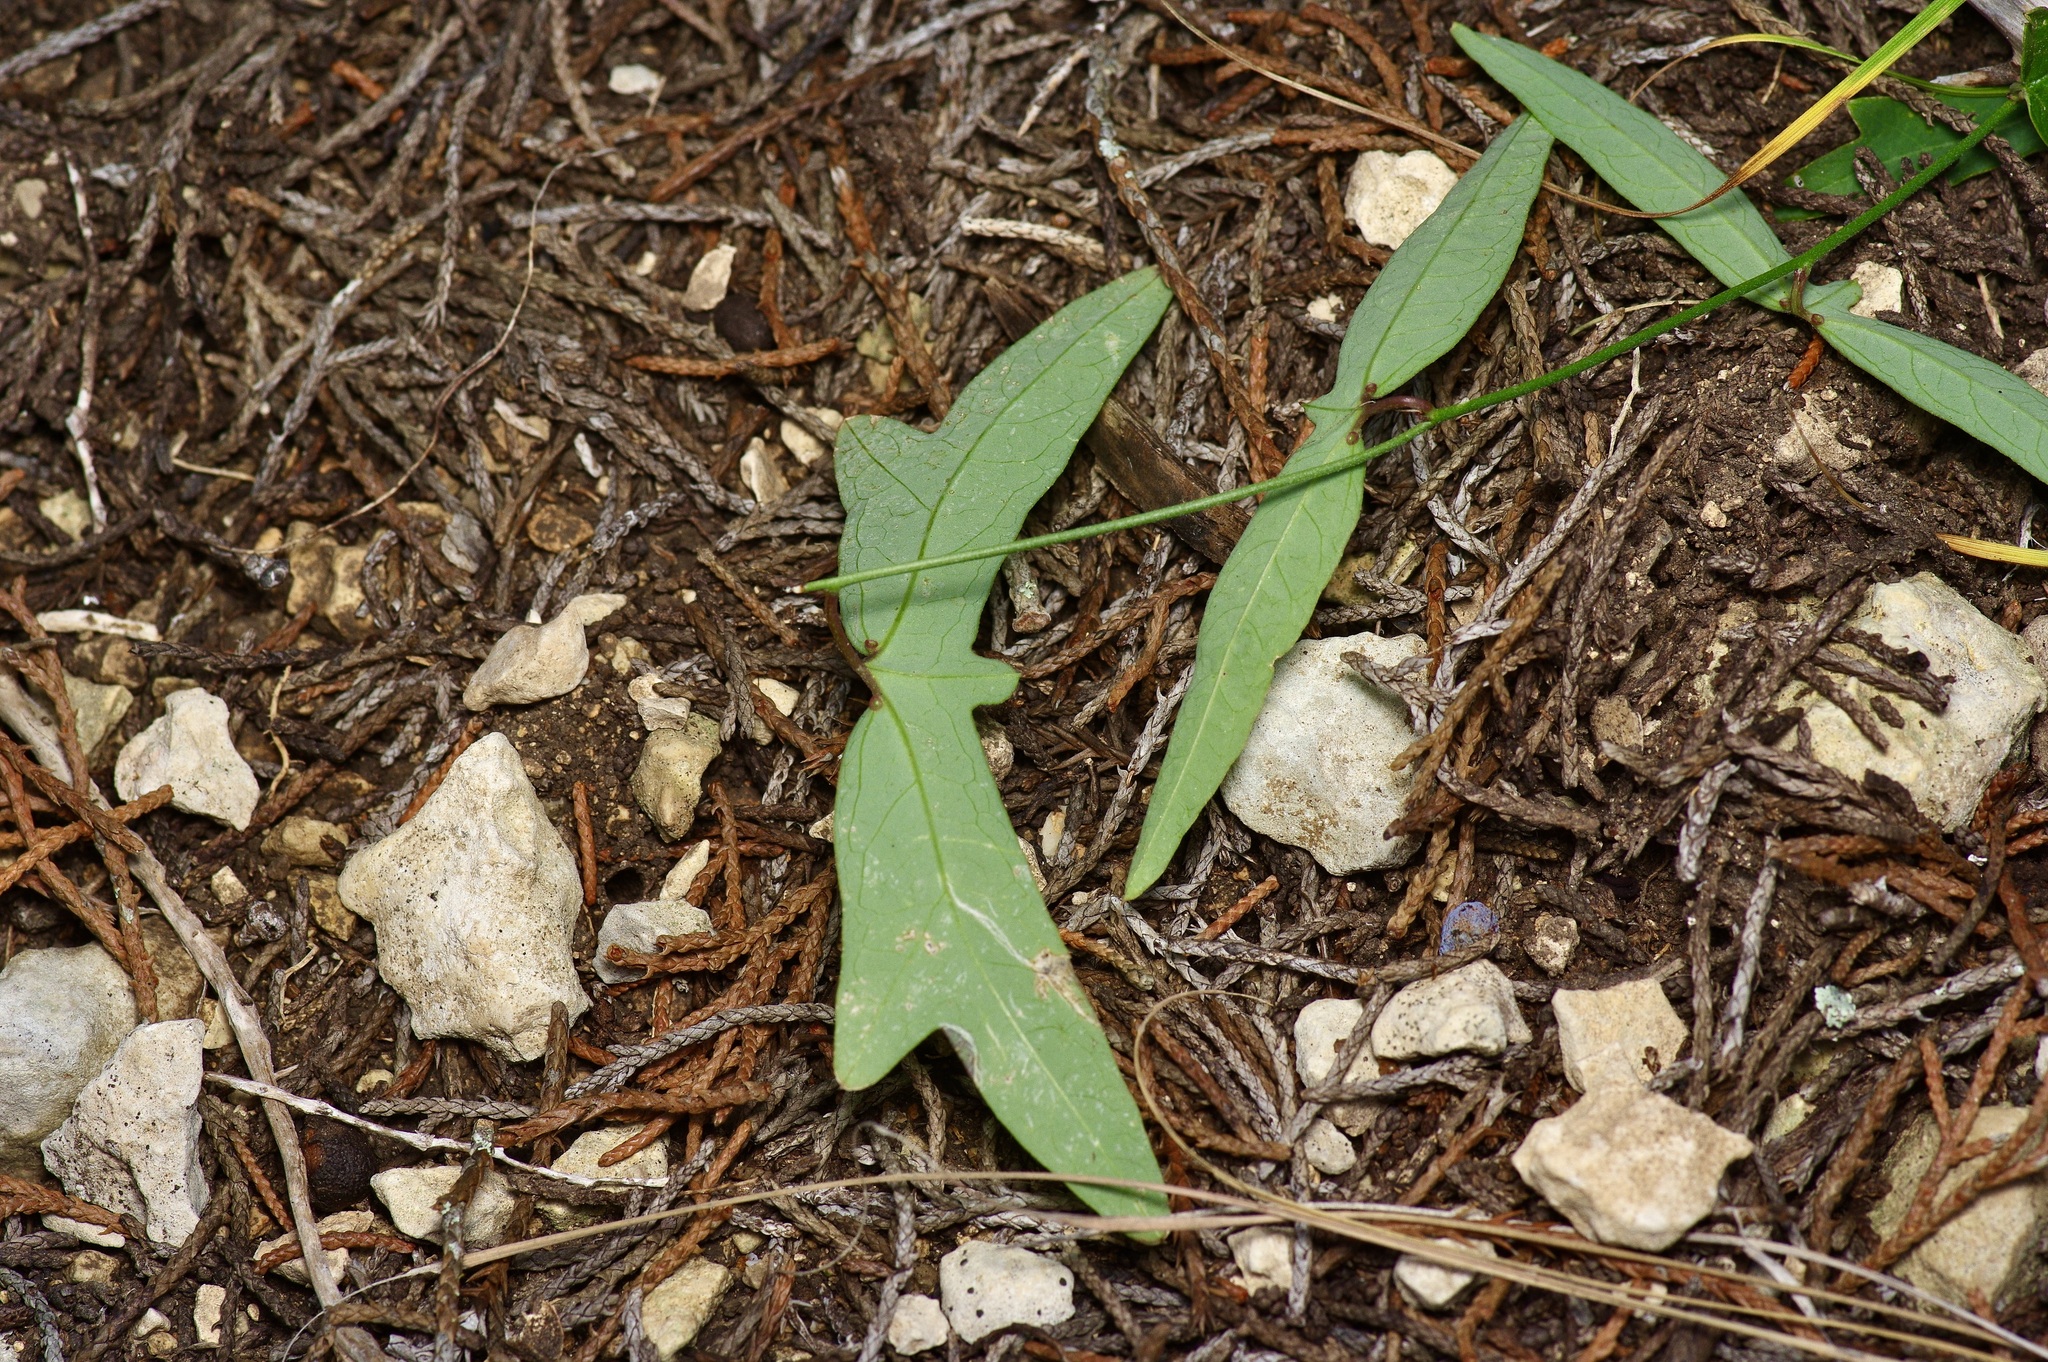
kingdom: Plantae
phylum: Tracheophyta
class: Magnoliopsida
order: Malpighiales
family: Passifloraceae
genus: Passiflora
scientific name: Passiflora tenuiloba
